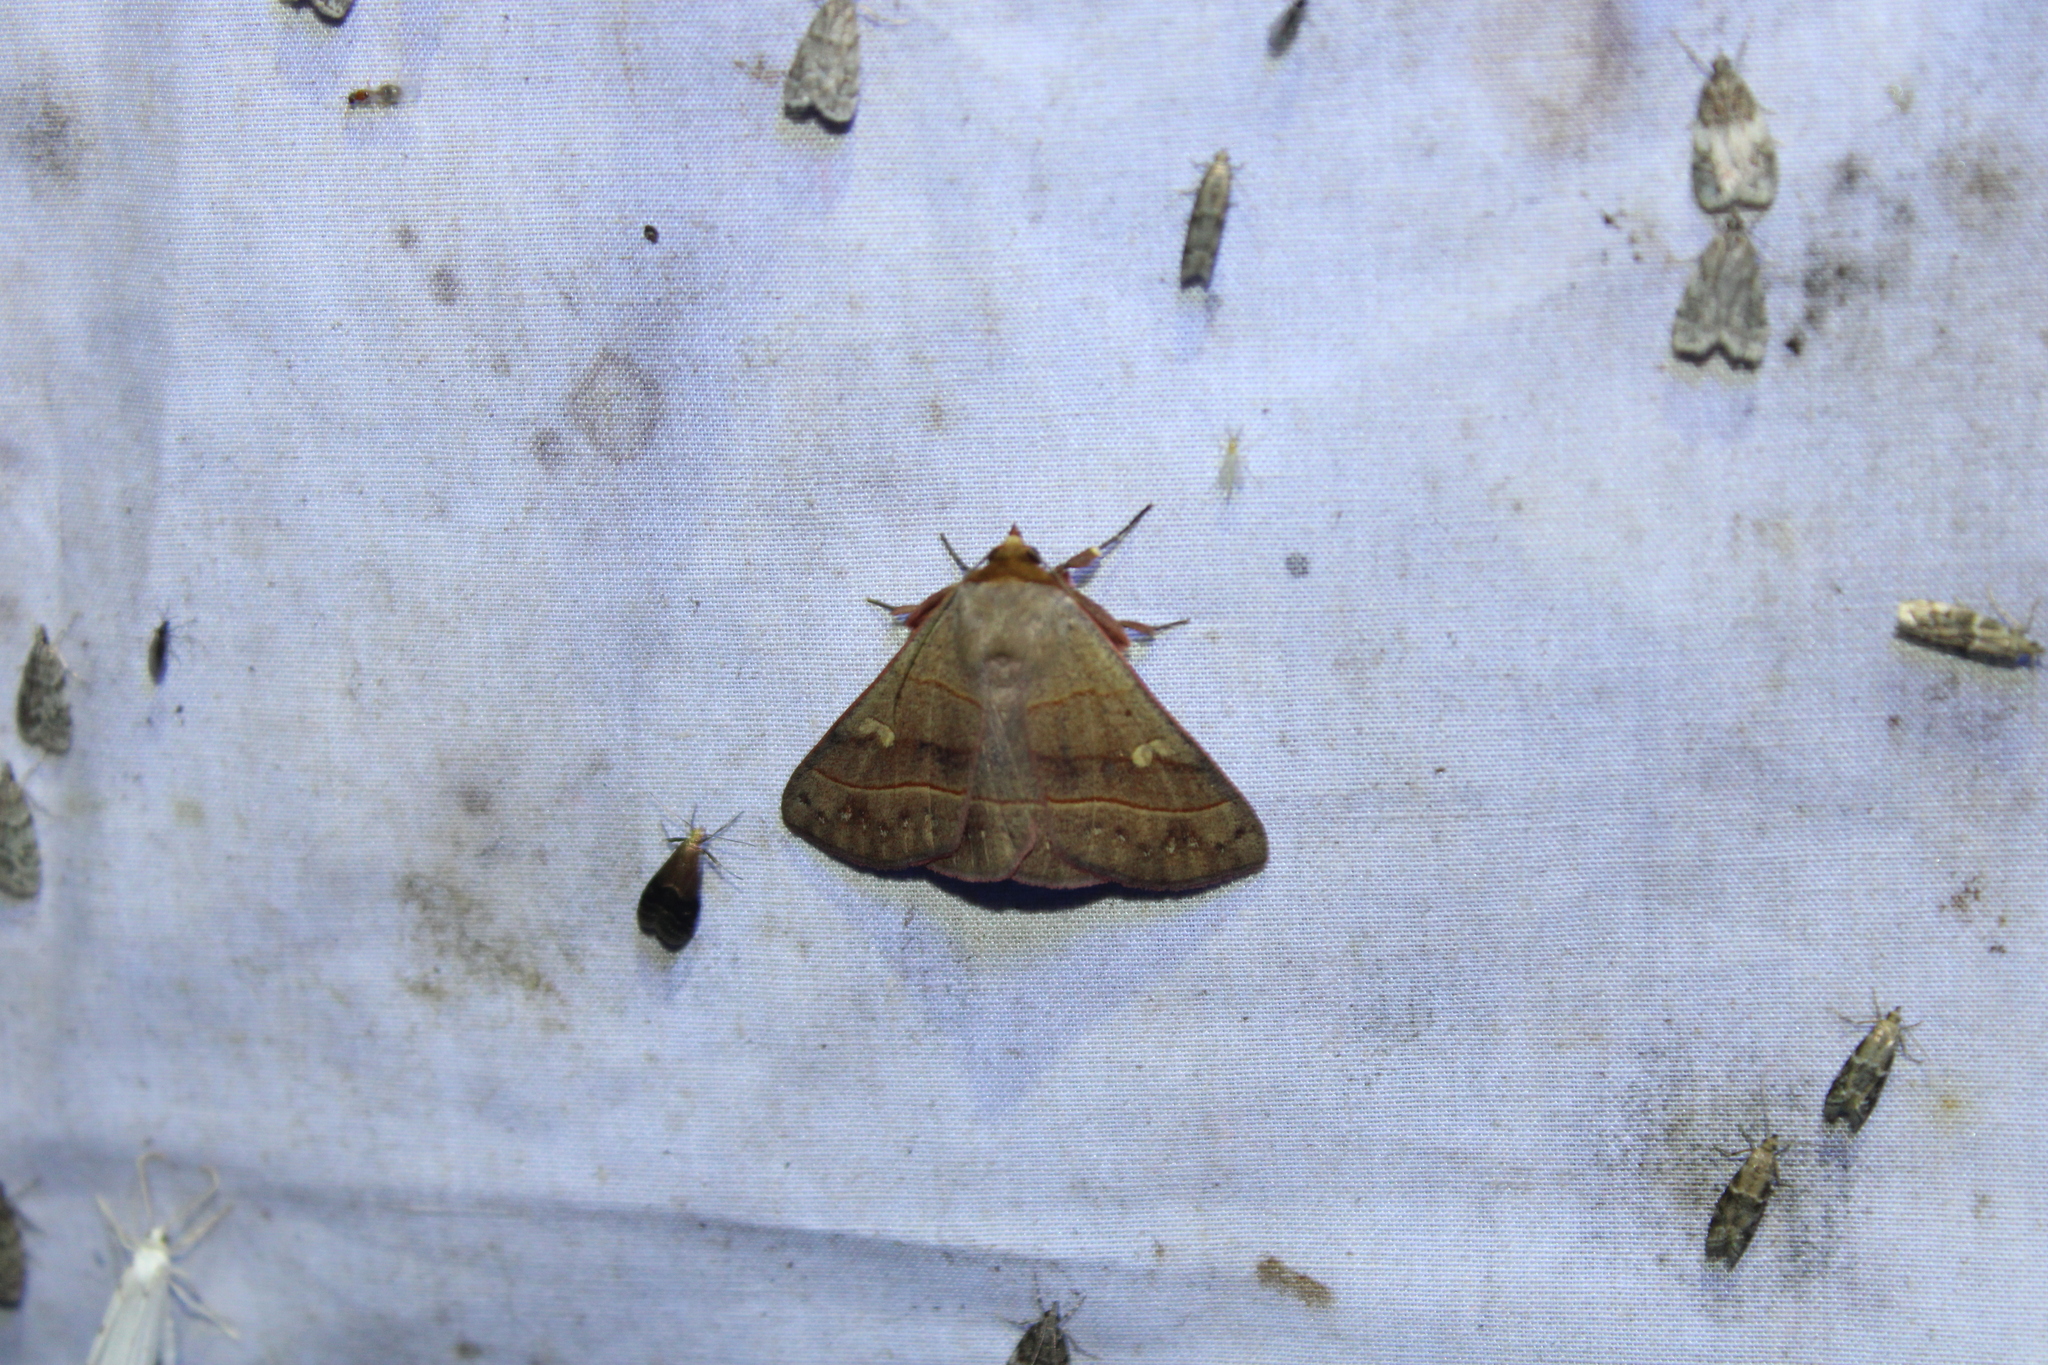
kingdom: Animalia
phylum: Arthropoda
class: Insecta
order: Lepidoptera
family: Erebidae
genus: Panopoda
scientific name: Panopoda rufimargo
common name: Red-lined panopoda moth
